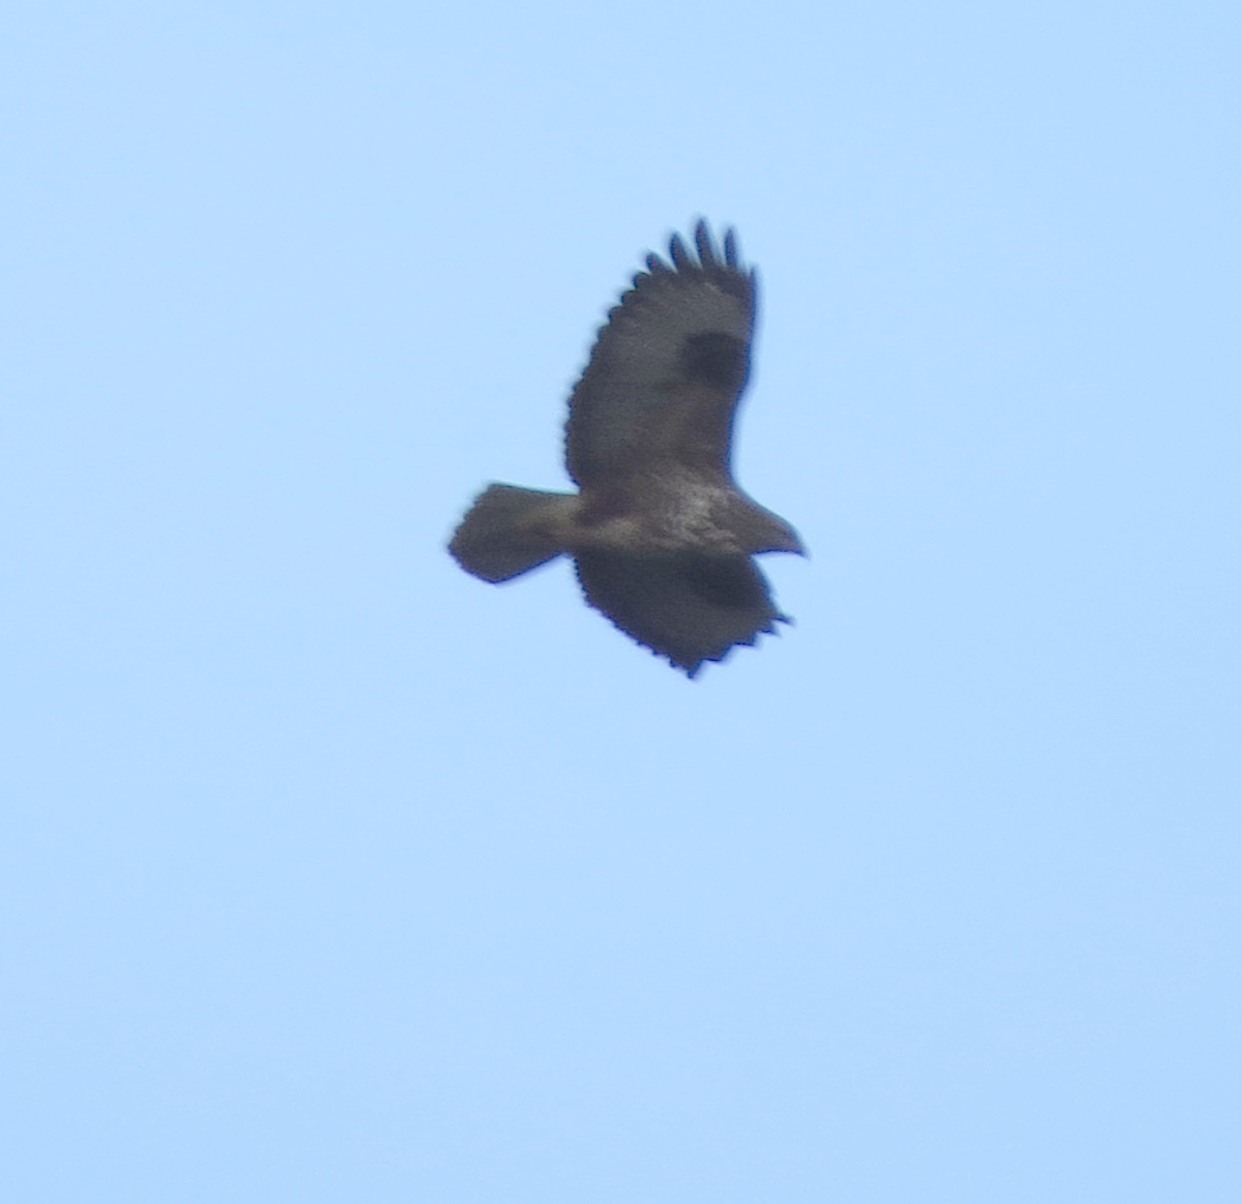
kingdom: Animalia
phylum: Chordata
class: Aves
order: Accipitriformes
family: Accipitridae
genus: Buteo
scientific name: Buteo buteo
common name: Common buzzard
